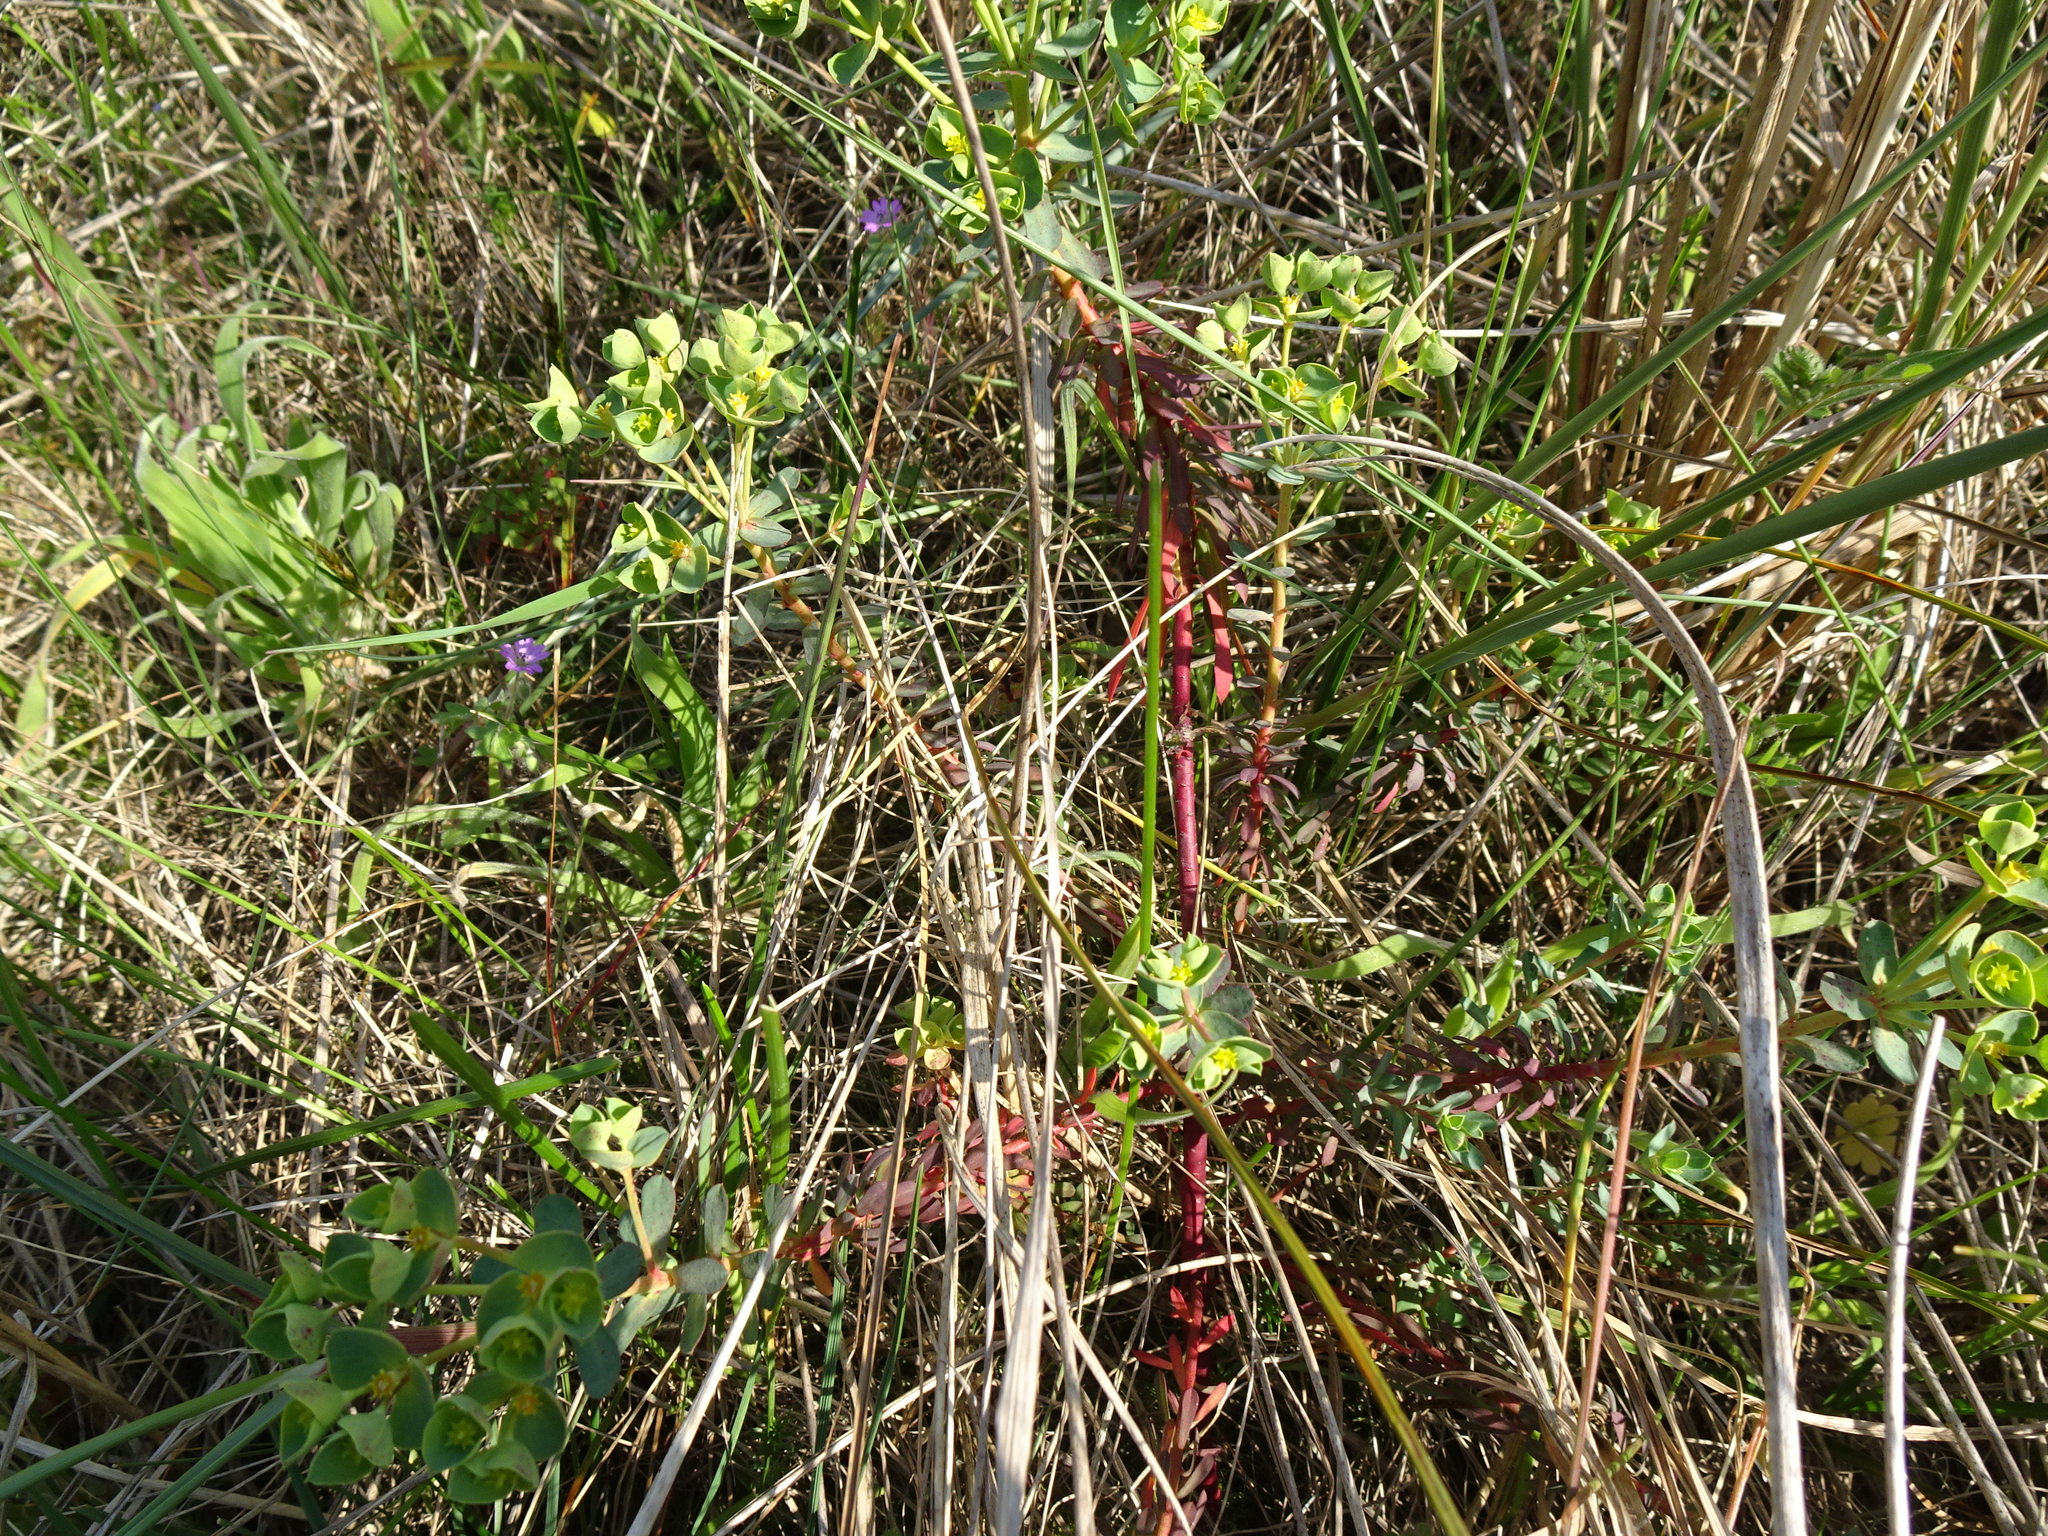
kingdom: Plantae
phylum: Tracheophyta
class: Magnoliopsida
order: Malpighiales
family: Euphorbiaceae
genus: Euphorbia
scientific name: Euphorbia portlandica
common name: Portland spurge
